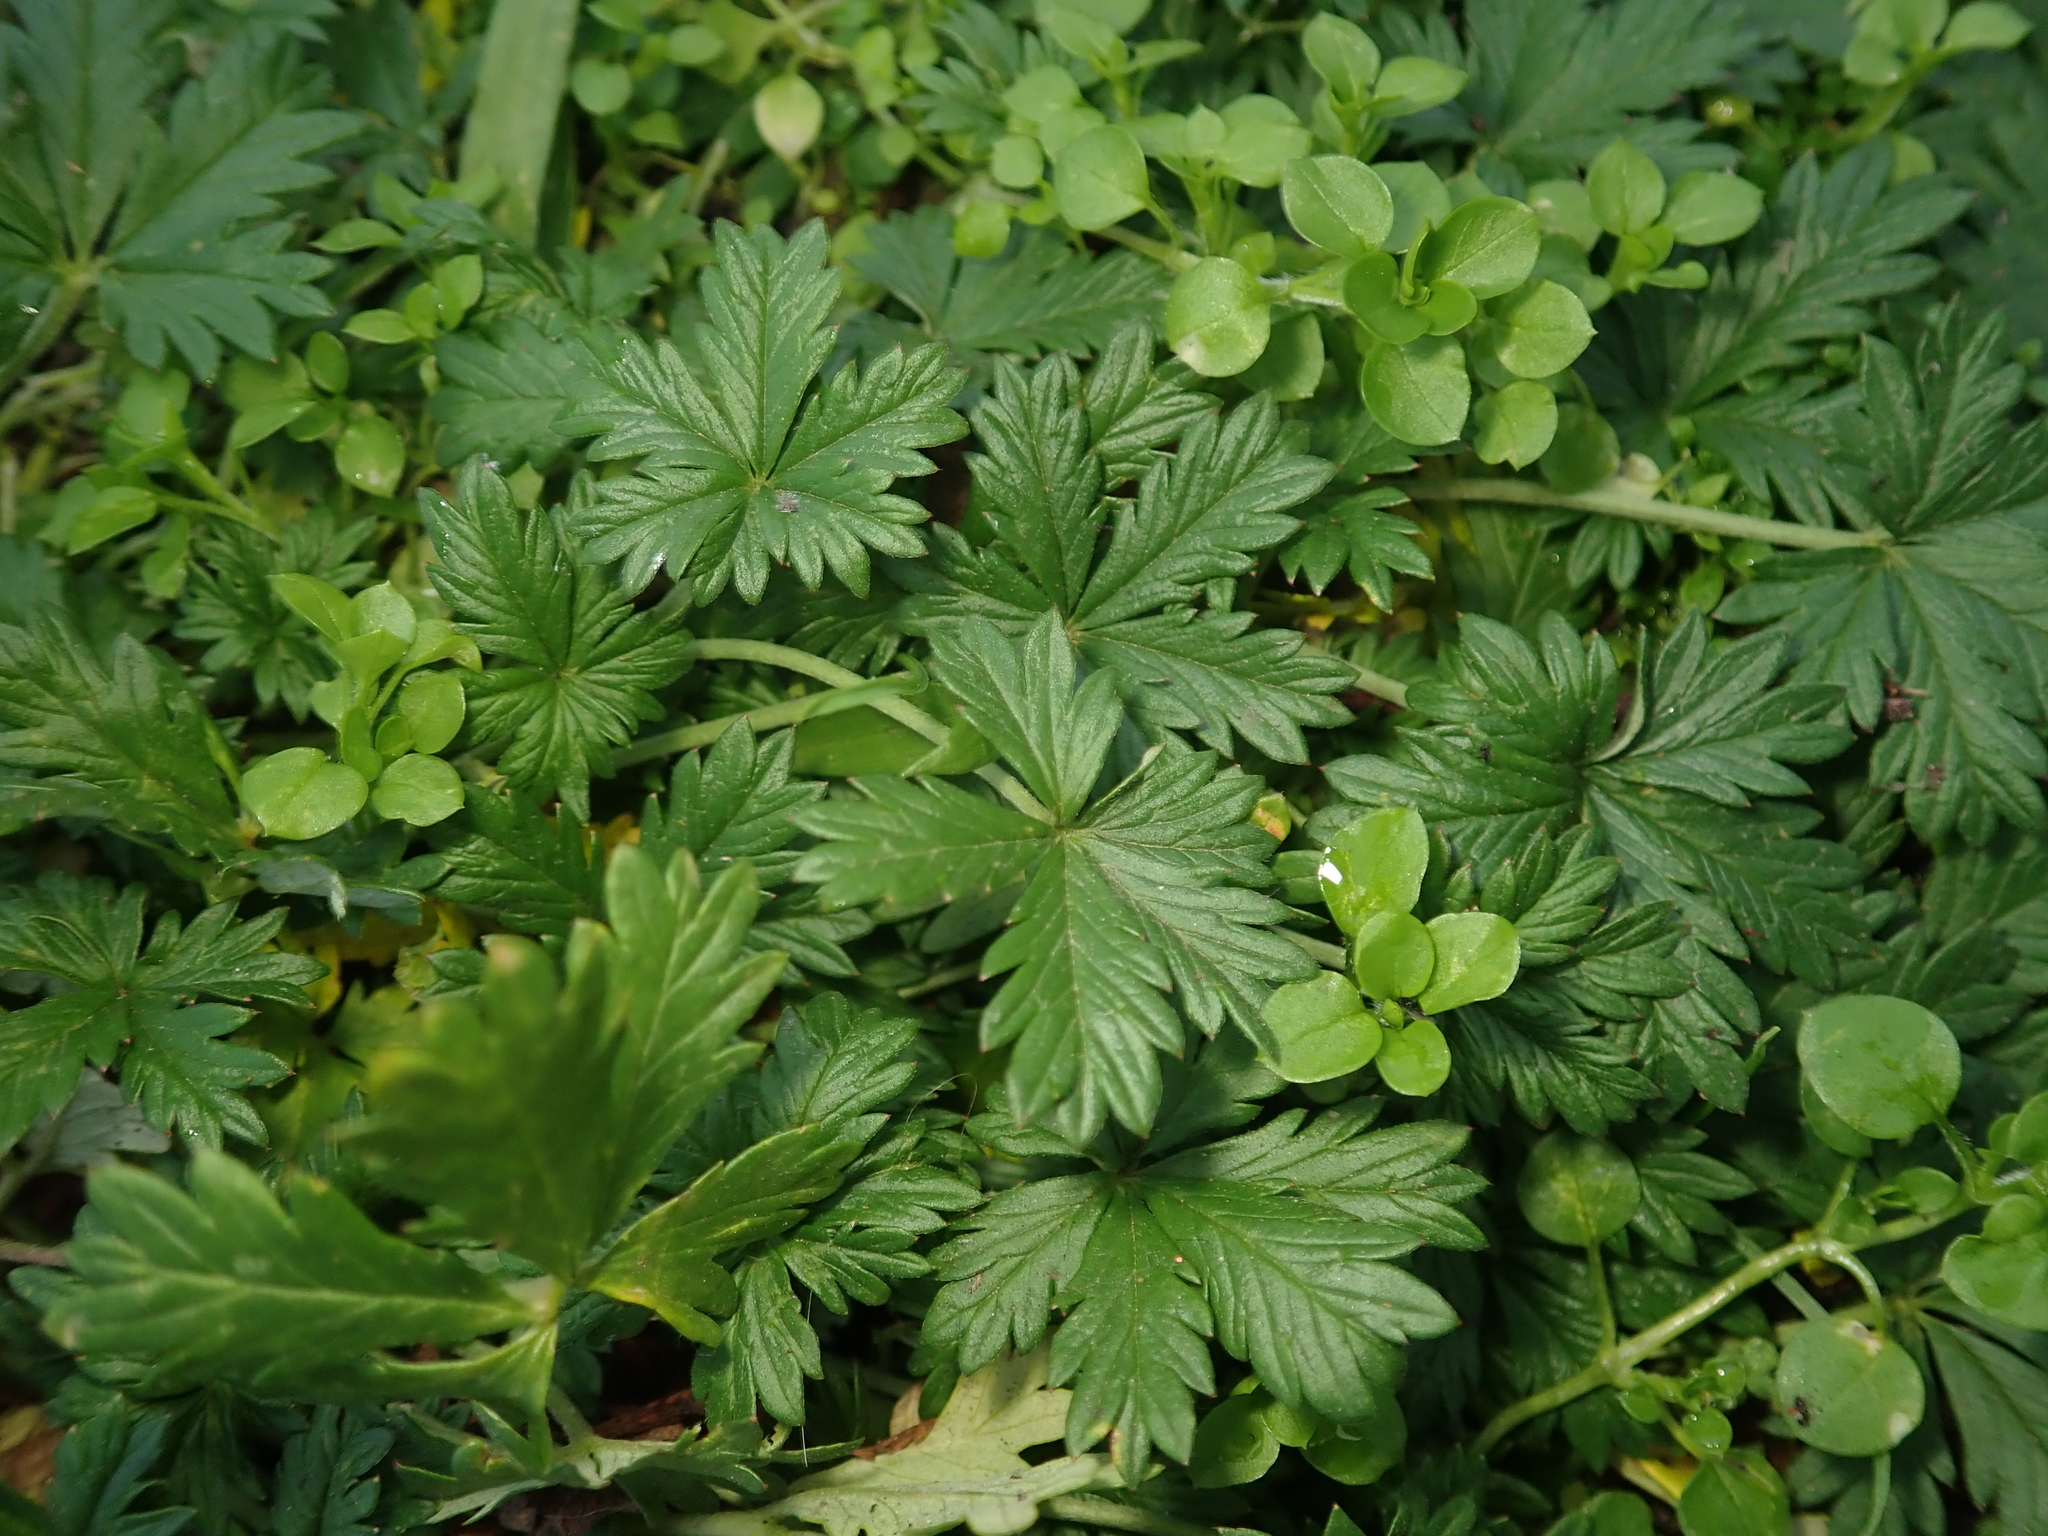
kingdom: Plantae
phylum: Tracheophyta
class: Magnoliopsida
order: Rosales
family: Rosaceae
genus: Potentilla
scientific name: Potentilla argentea
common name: Hoary cinquefoil
